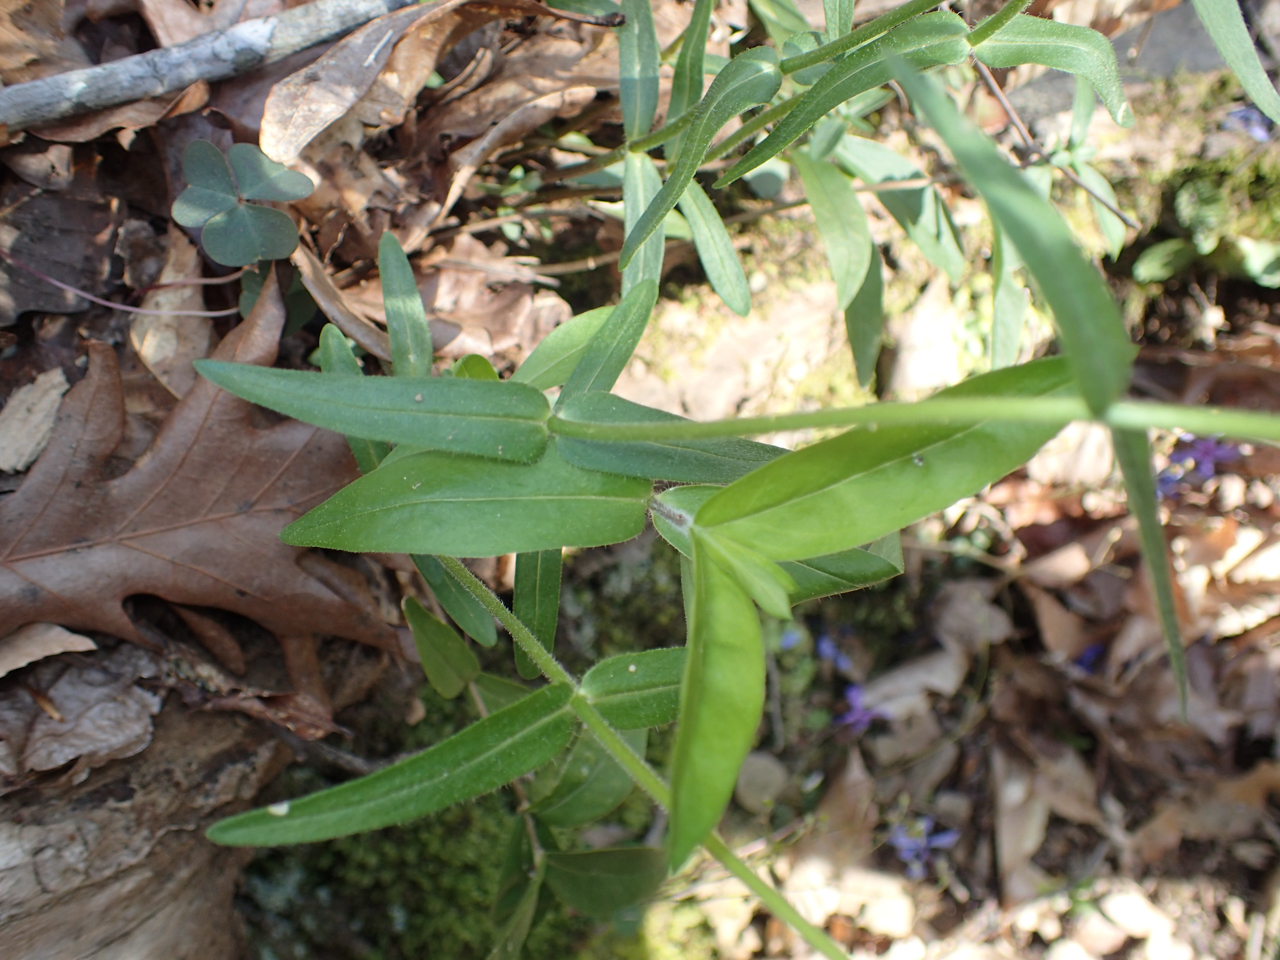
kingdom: Plantae
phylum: Tracheophyta
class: Magnoliopsida
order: Ericales
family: Polemoniaceae
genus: Phlox
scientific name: Phlox divaricata
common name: Blue phlox
